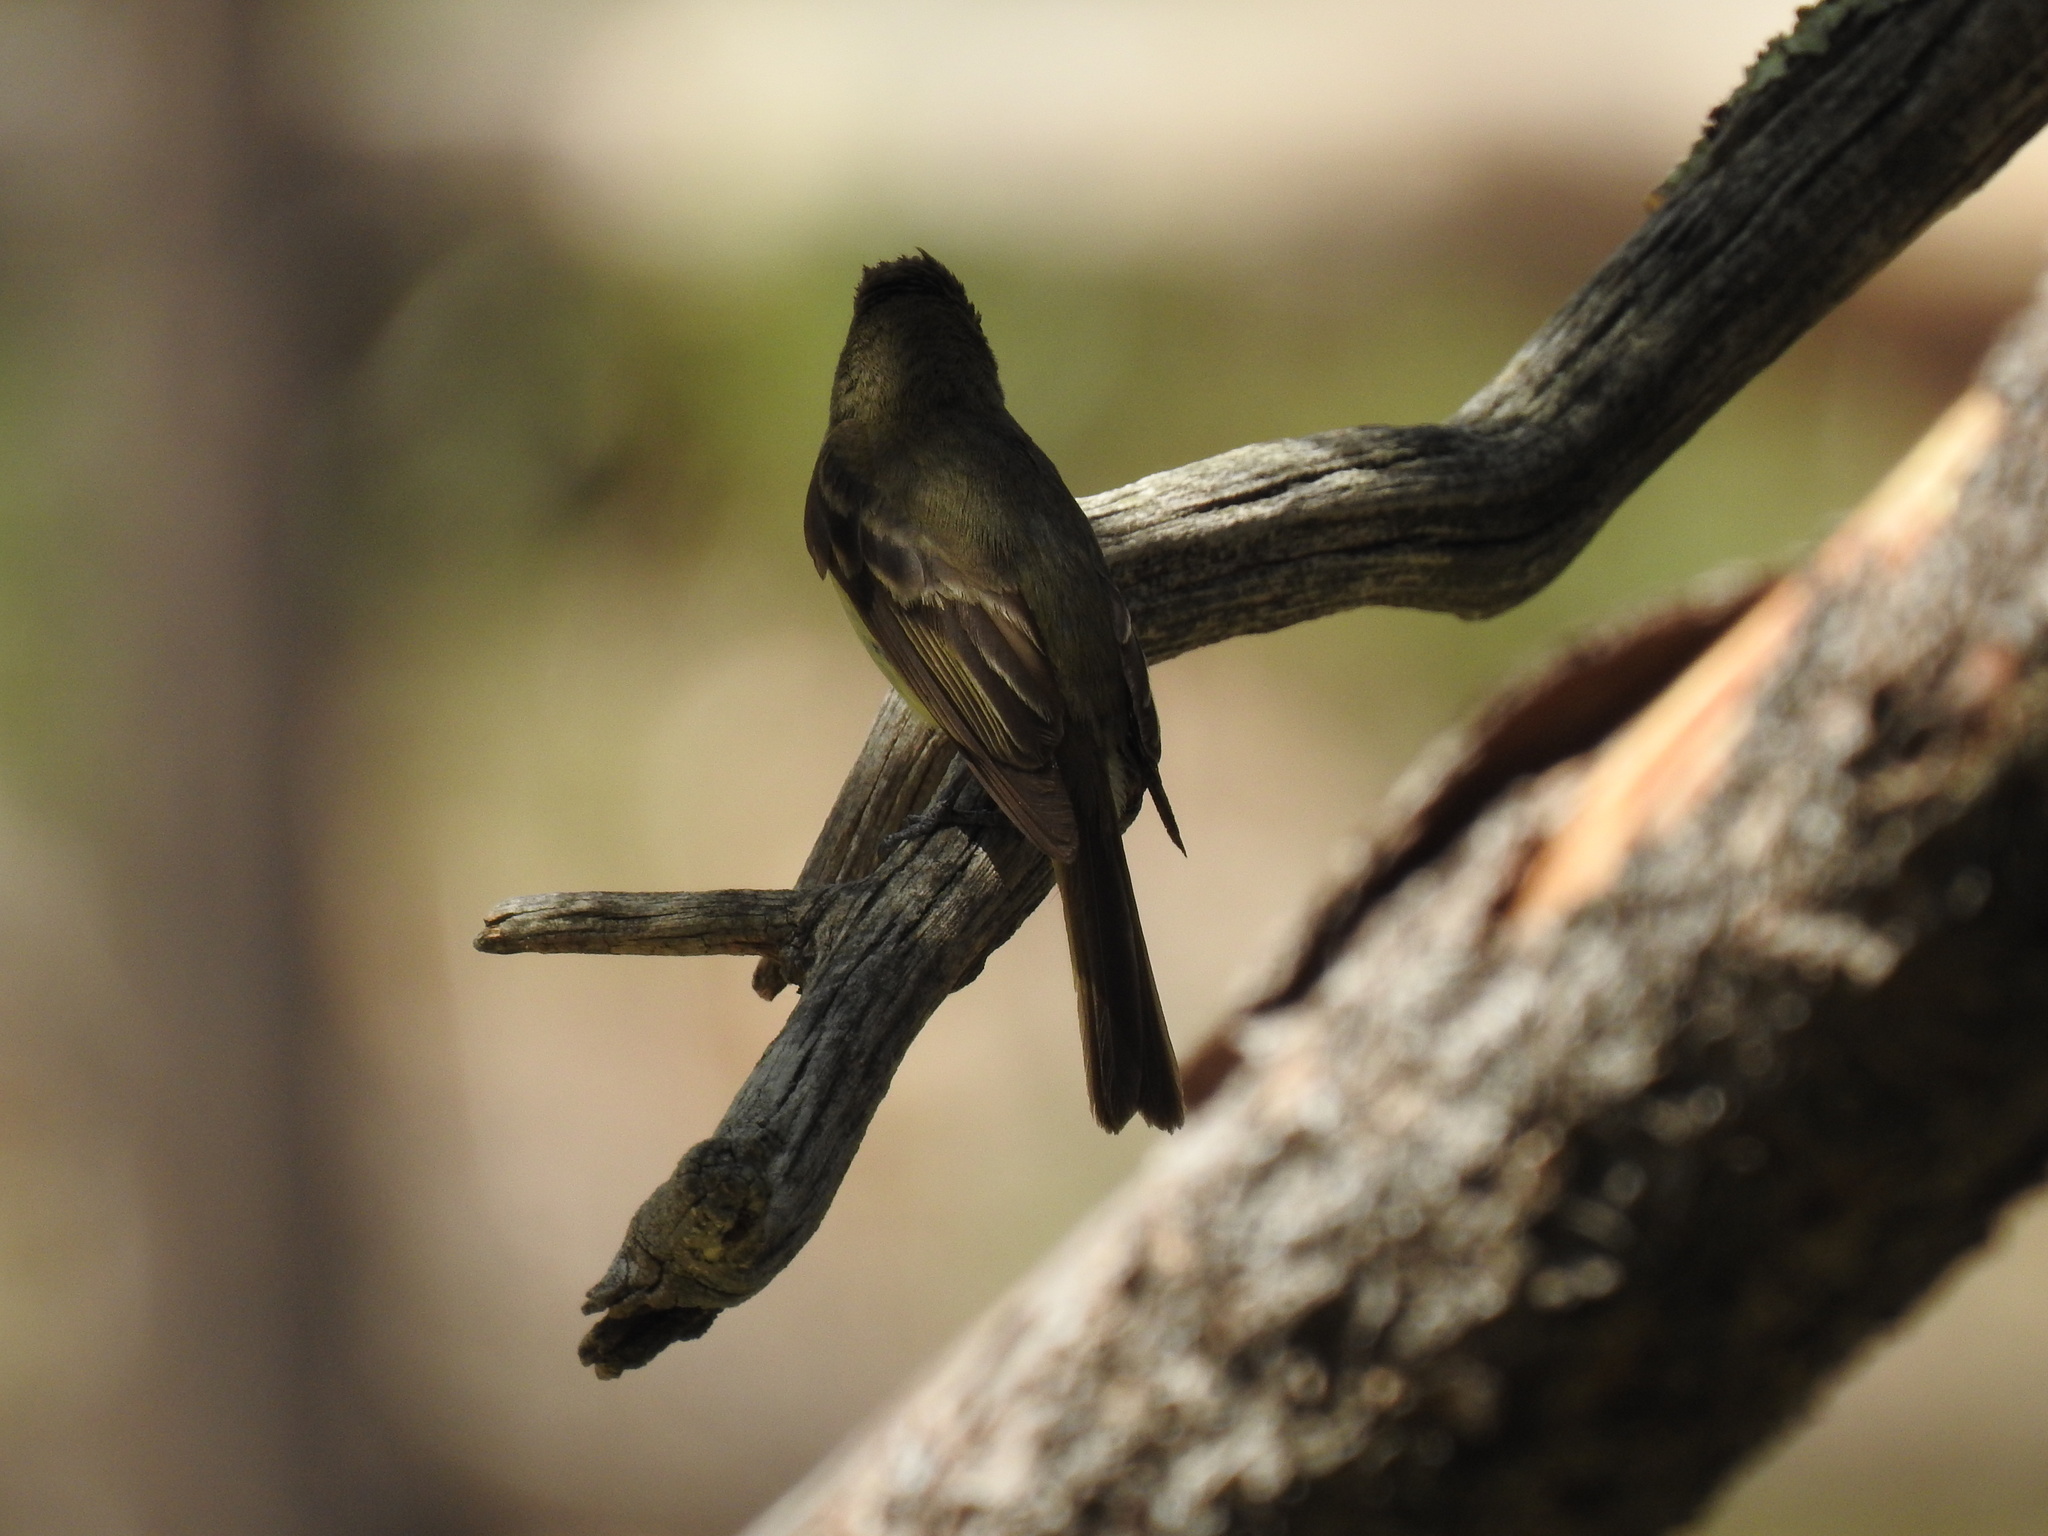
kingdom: Animalia
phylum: Chordata
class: Aves
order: Passeriformes
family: Tyrannidae
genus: Empidonax
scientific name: Empidonax difficilis
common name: Pacific-slope flycatcher
